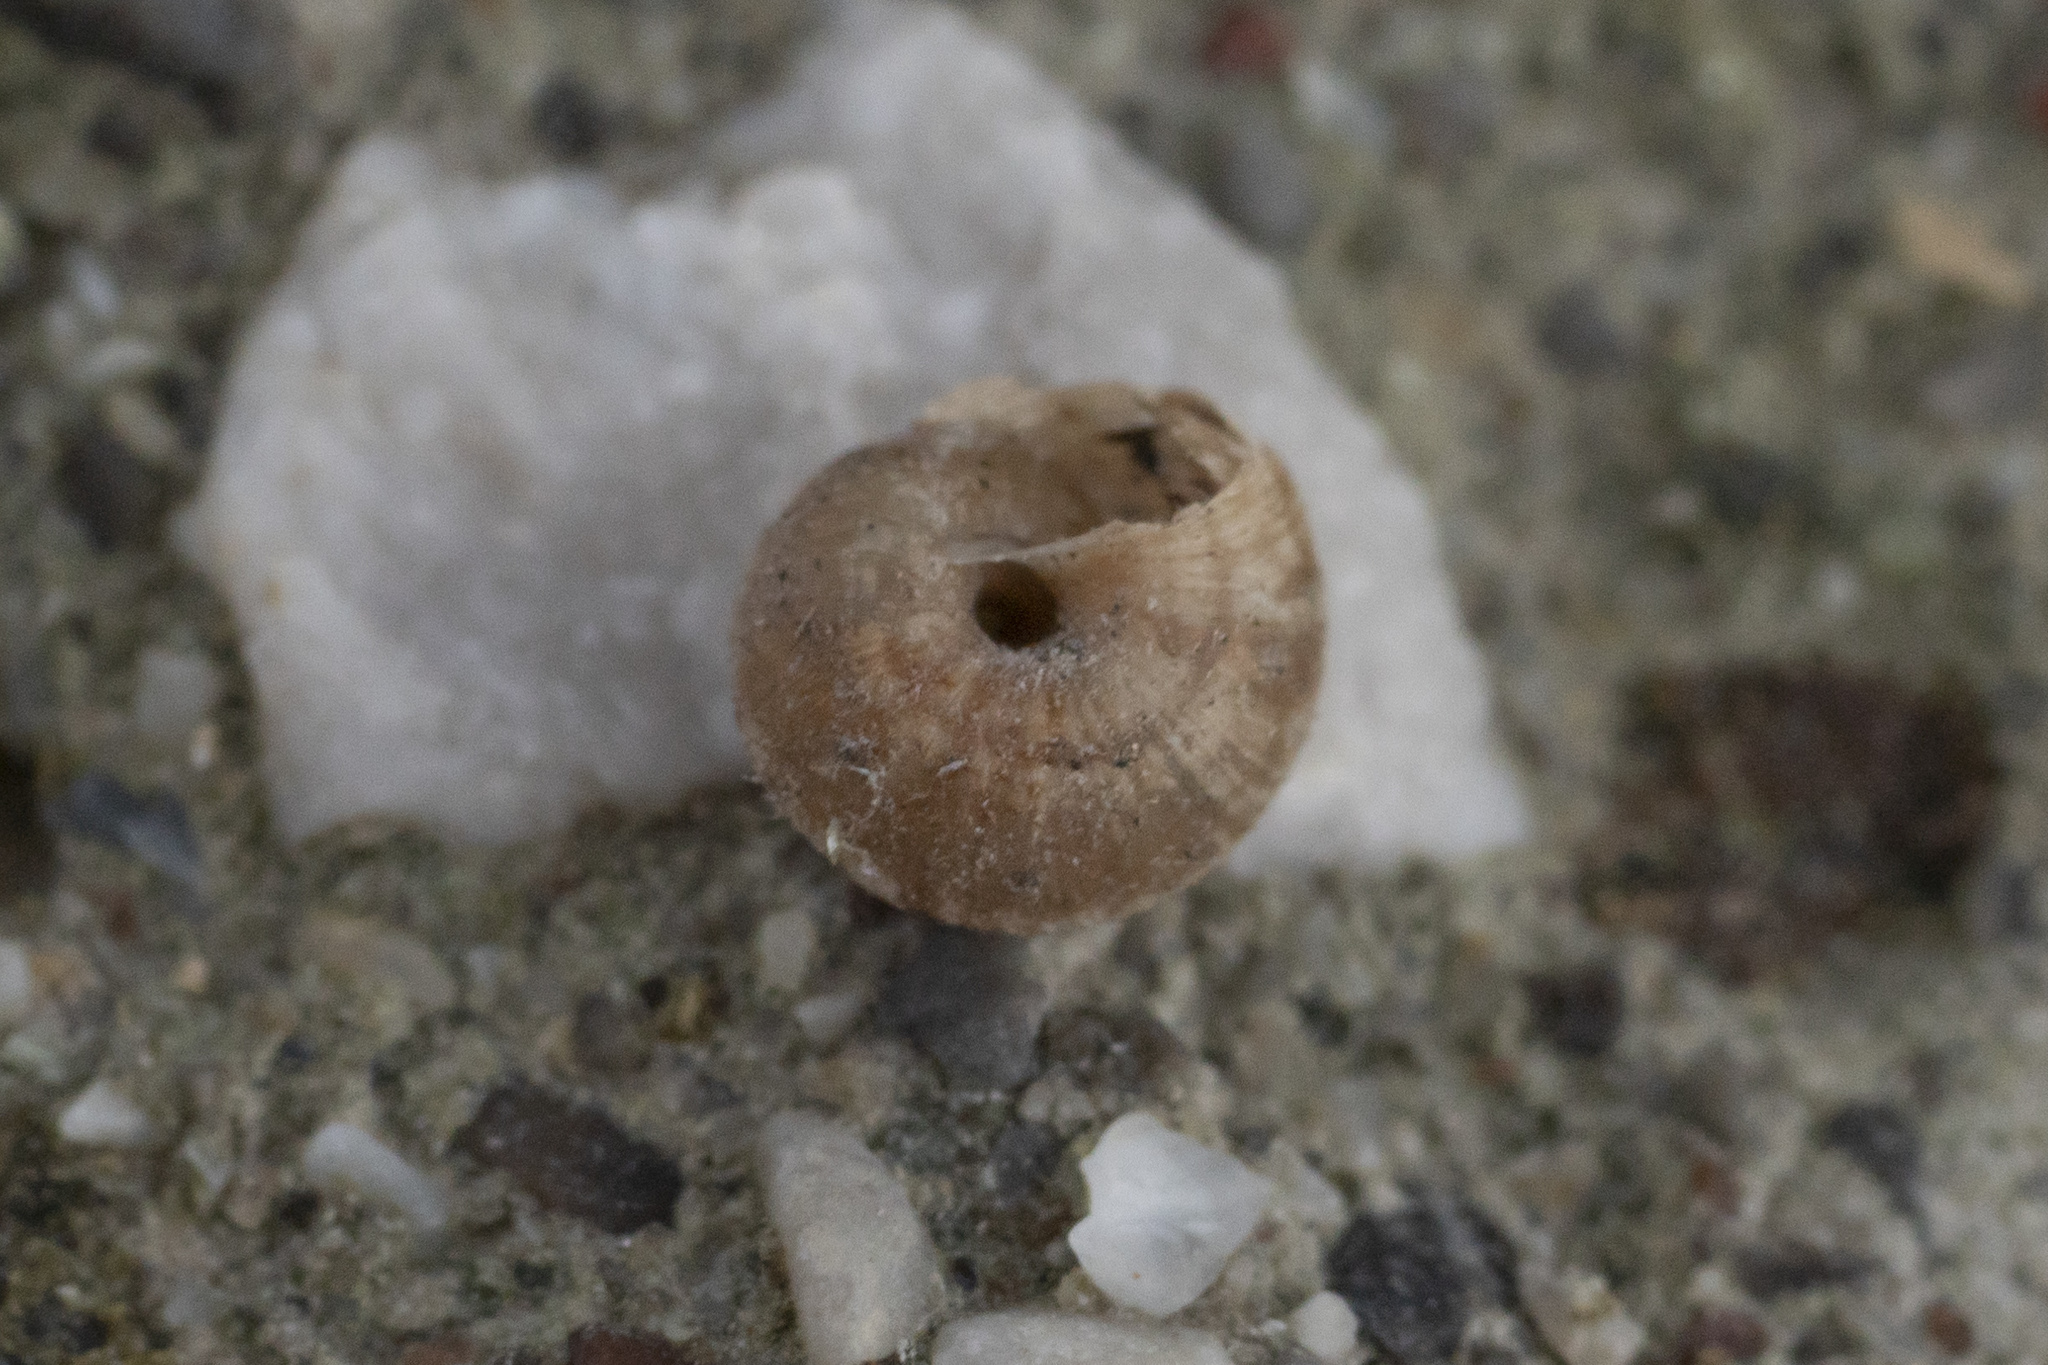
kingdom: Animalia
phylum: Mollusca
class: Gastropoda
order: Stylommatophora
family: Geomitridae
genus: Xerotricha
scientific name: Xerotricha conspurcata
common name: Snail
